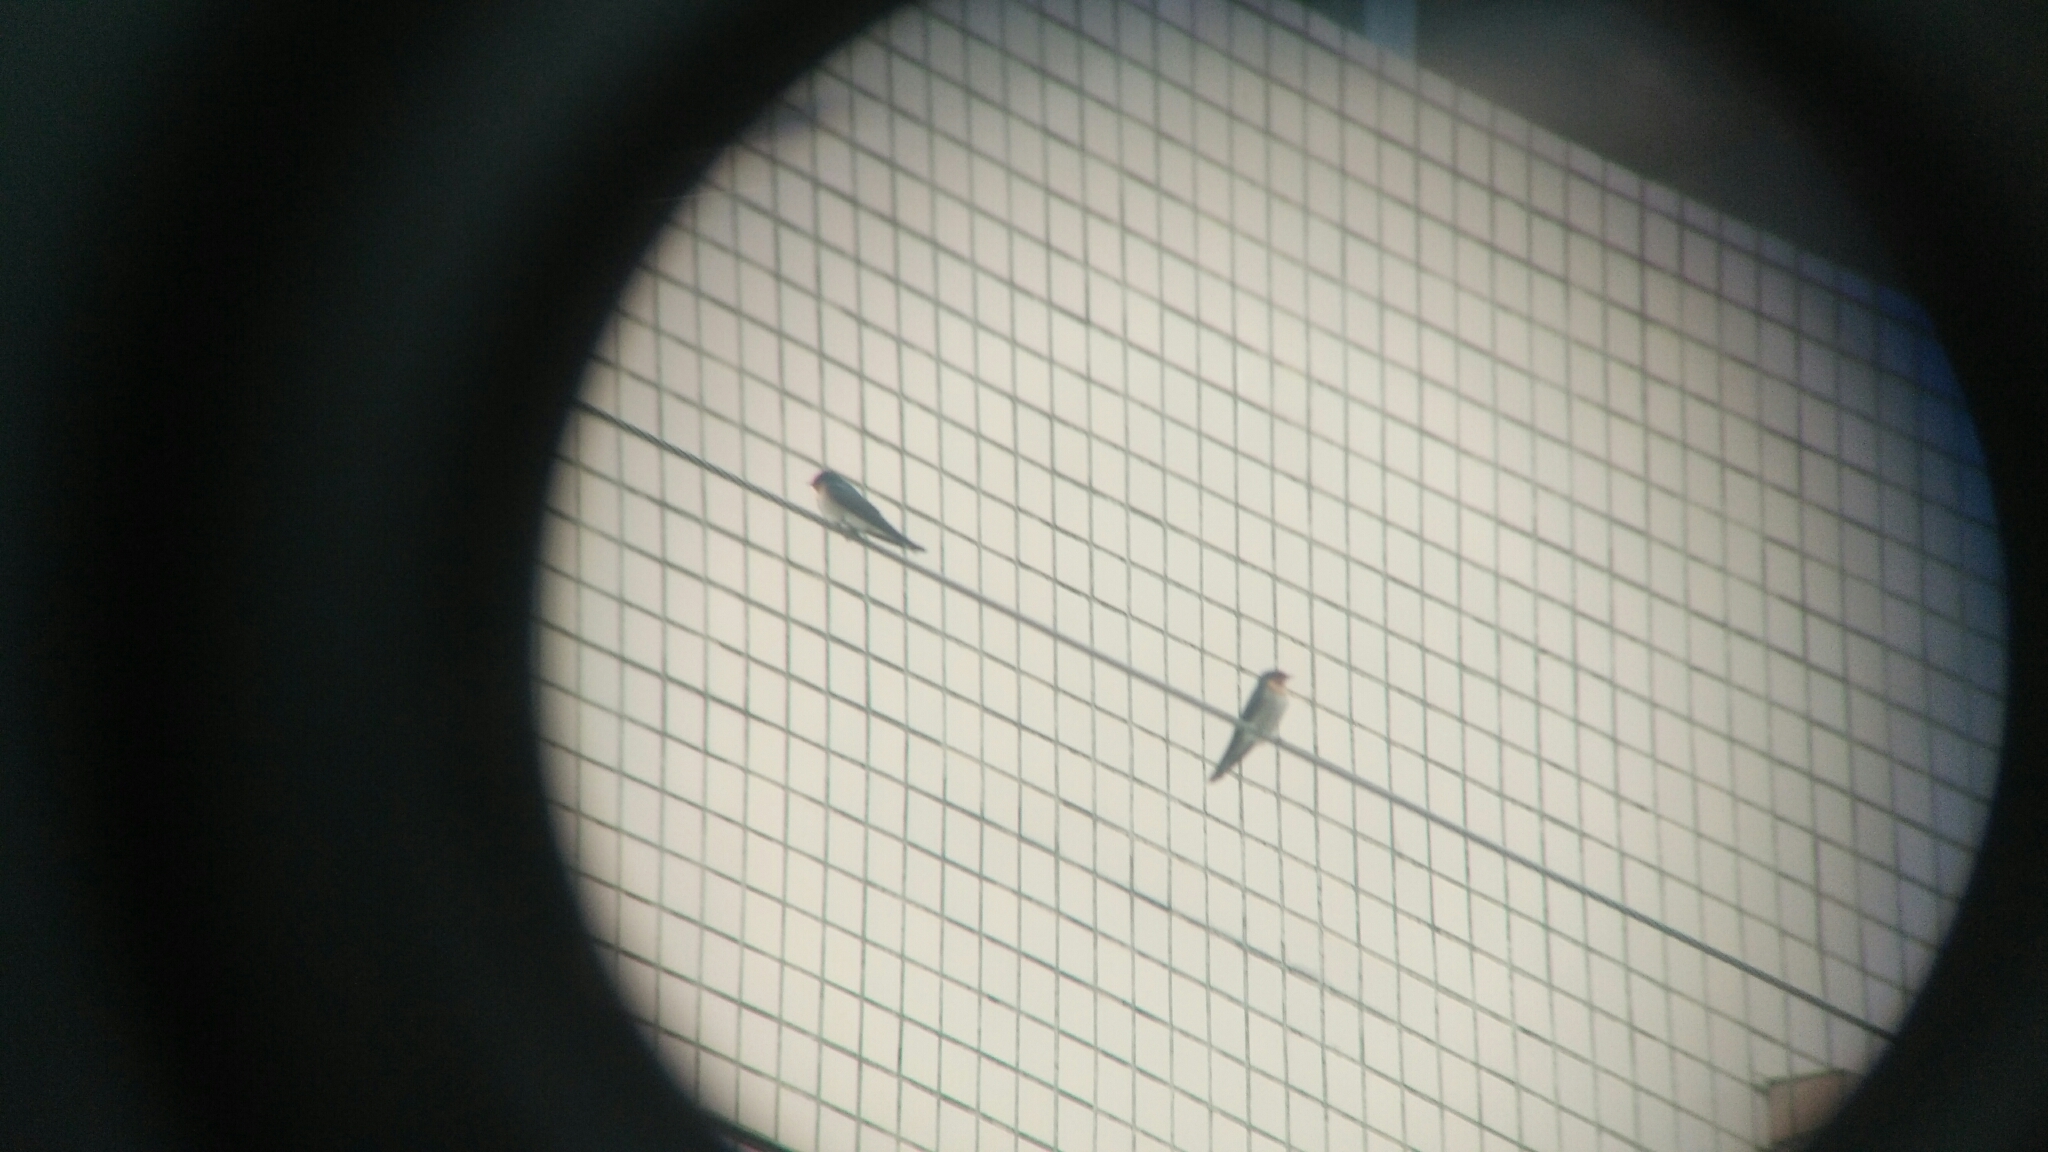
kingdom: Animalia
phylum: Chordata
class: Aves
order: Passeriformes
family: Hirundinidae
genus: Hirundo
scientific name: Hirundo tahitica
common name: Pacific swallow
